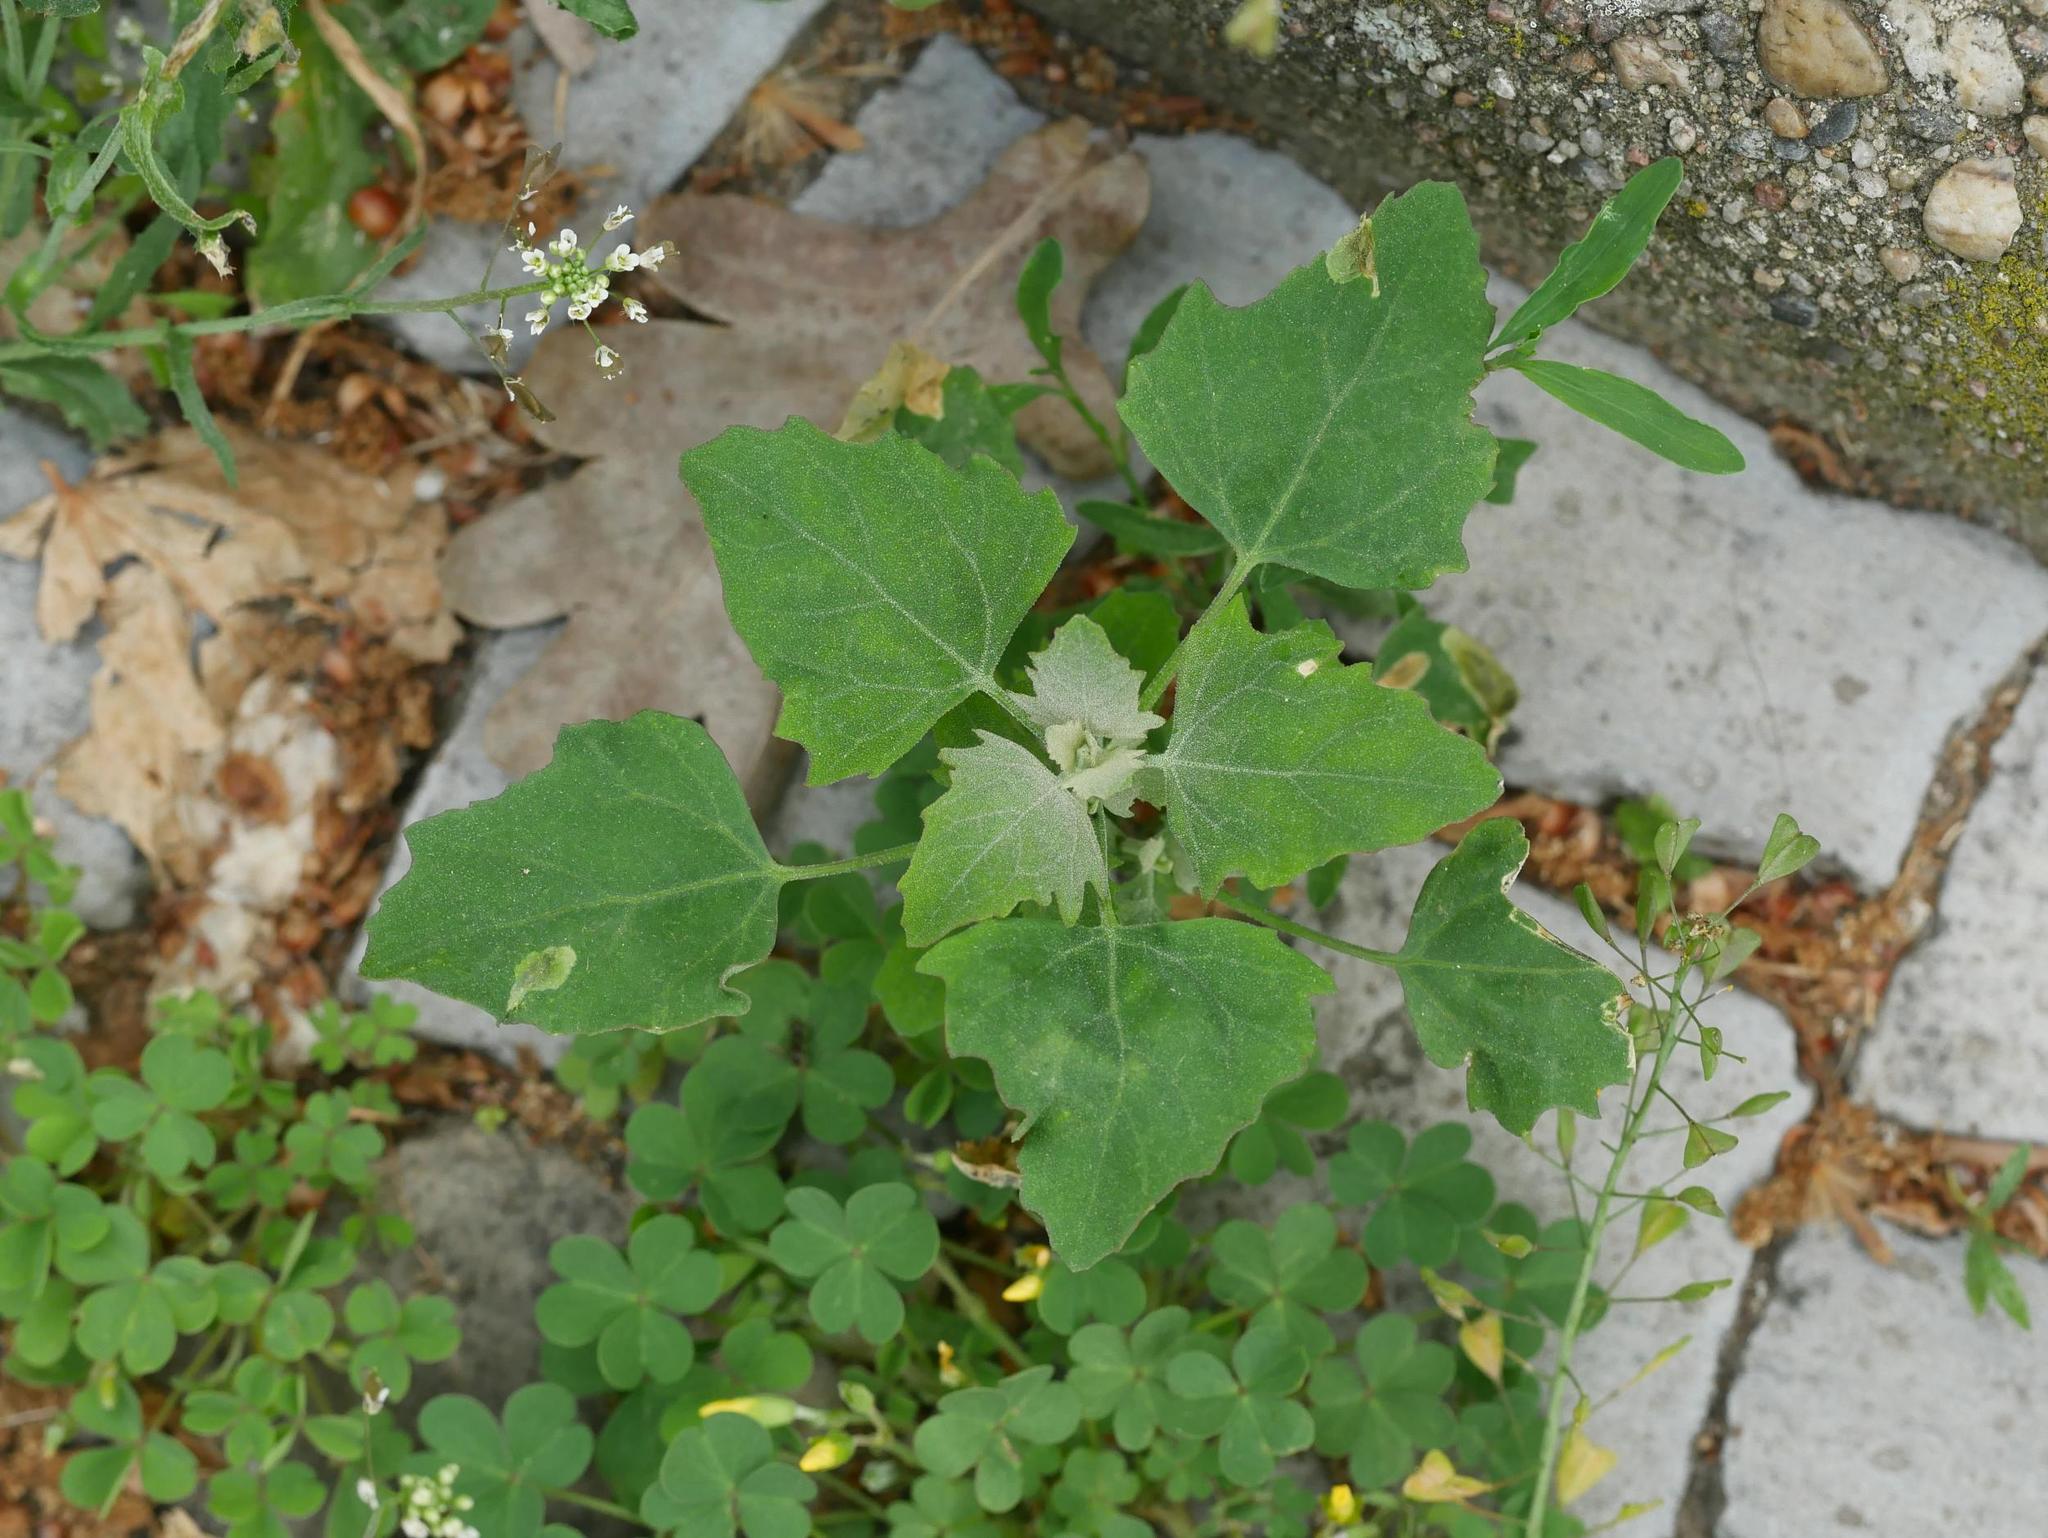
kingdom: Plantae
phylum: Tracheophyta
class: Magnoliopsida
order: Caryophyllales
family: Amaranthaceae
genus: Chenopodium
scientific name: Chenopodium album
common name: Fat-hen
